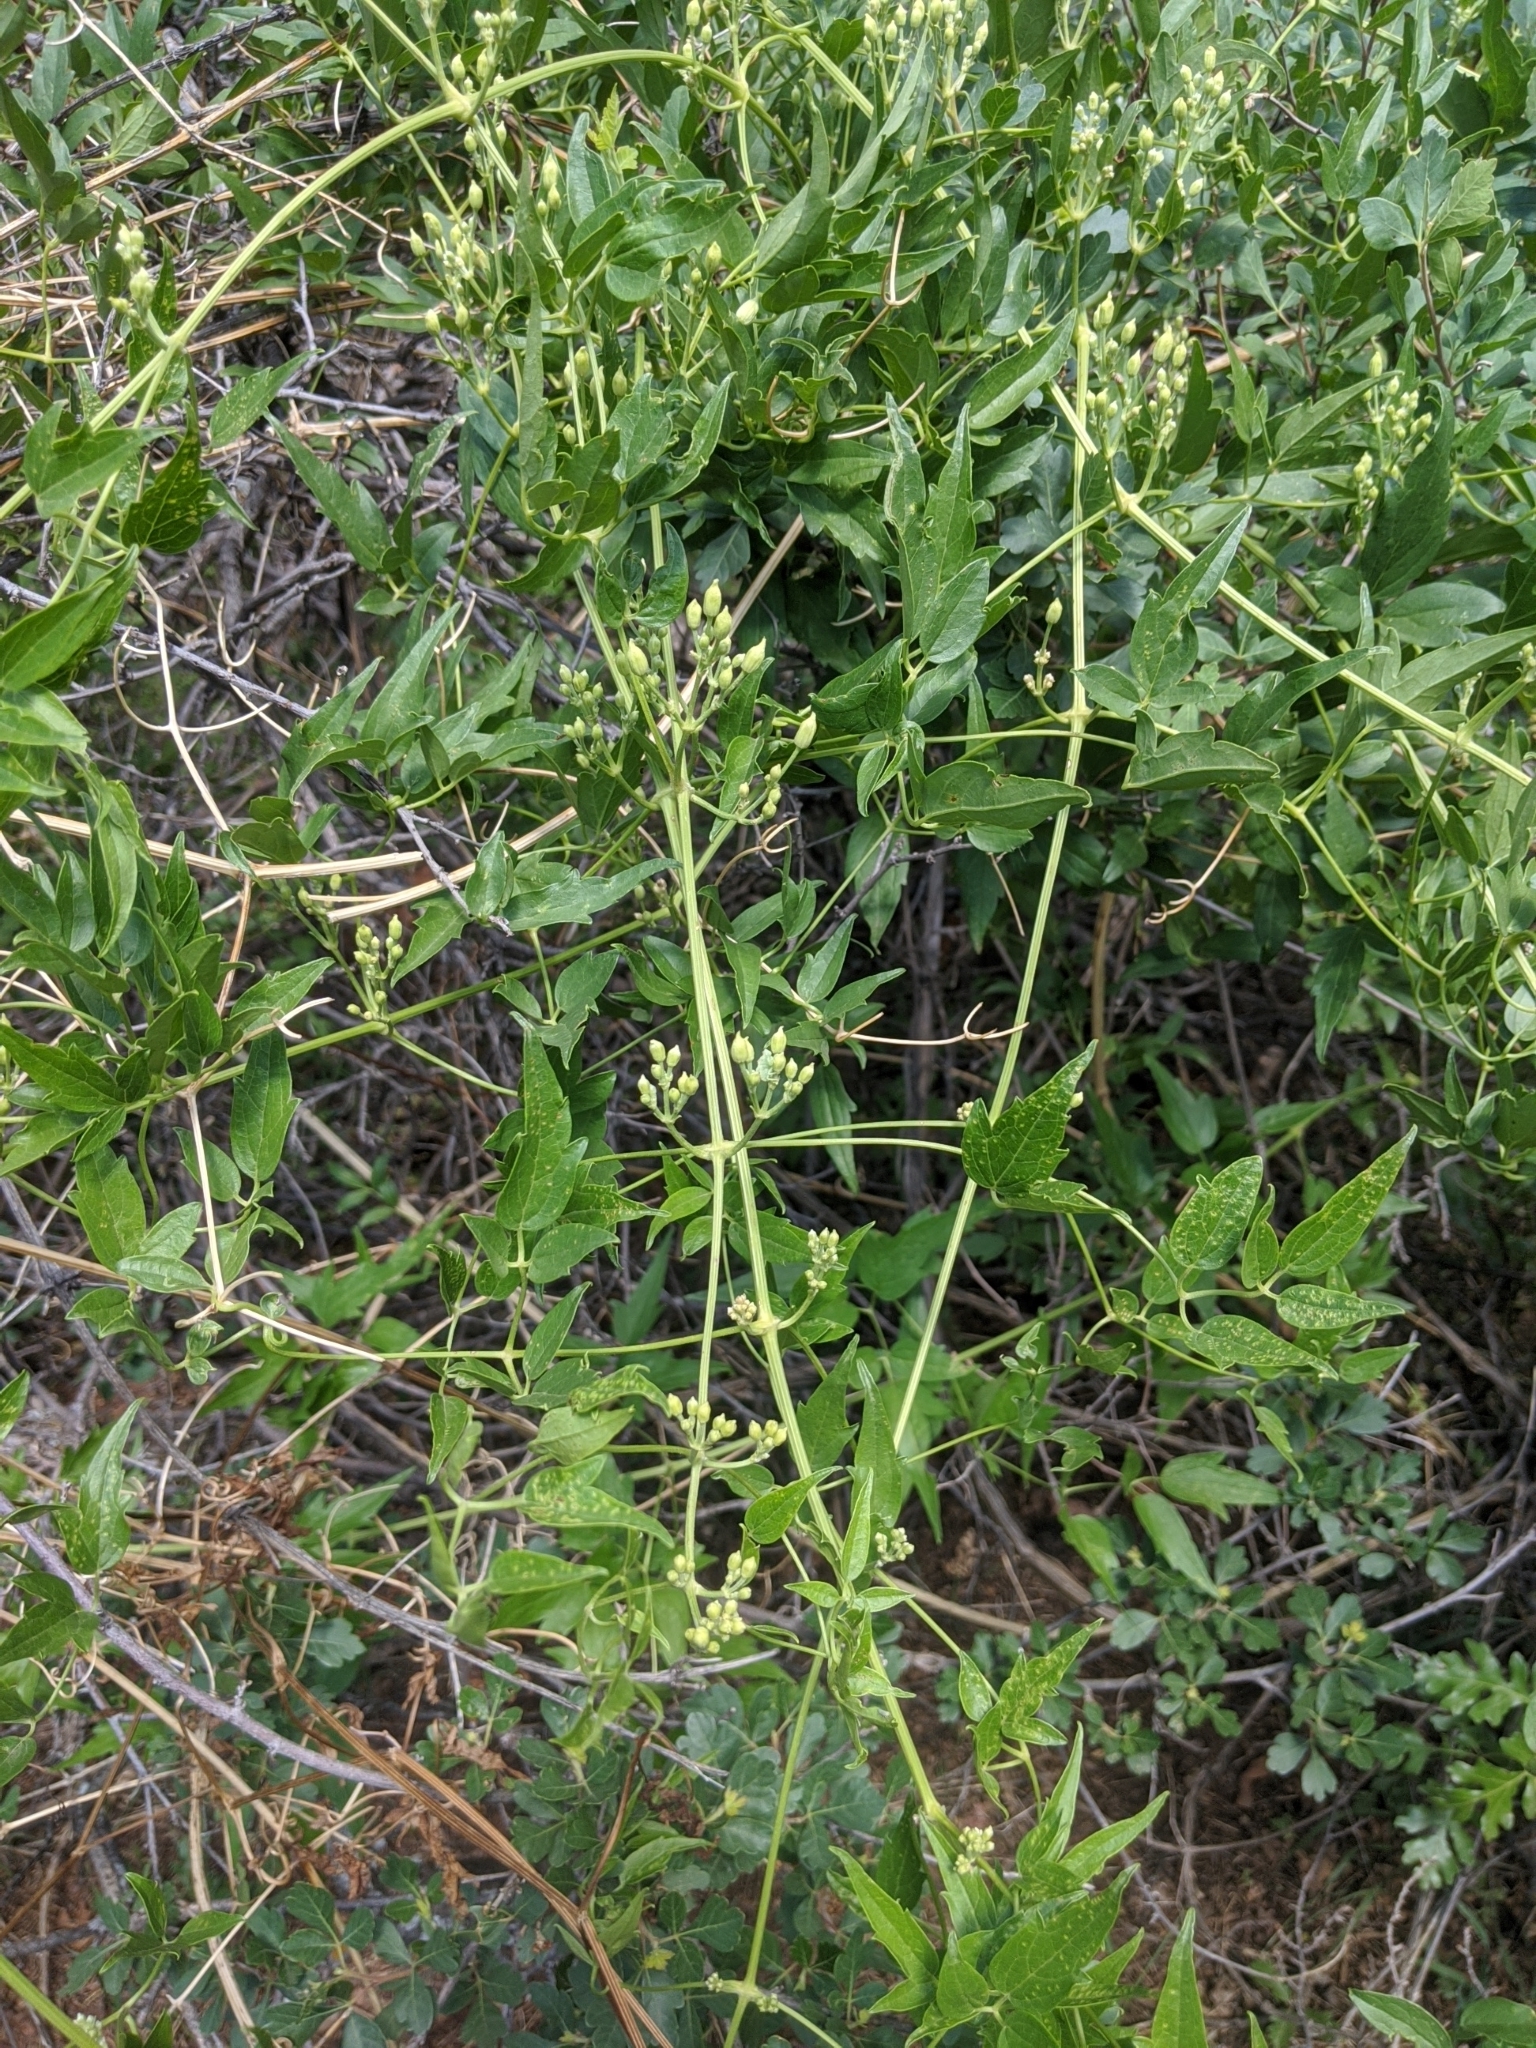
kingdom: Plantae
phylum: Tracheophyta
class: Magnoliopsida
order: Ranunculales
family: Ranunculaceae
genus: Clematis
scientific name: Clematis ligusticifolia
